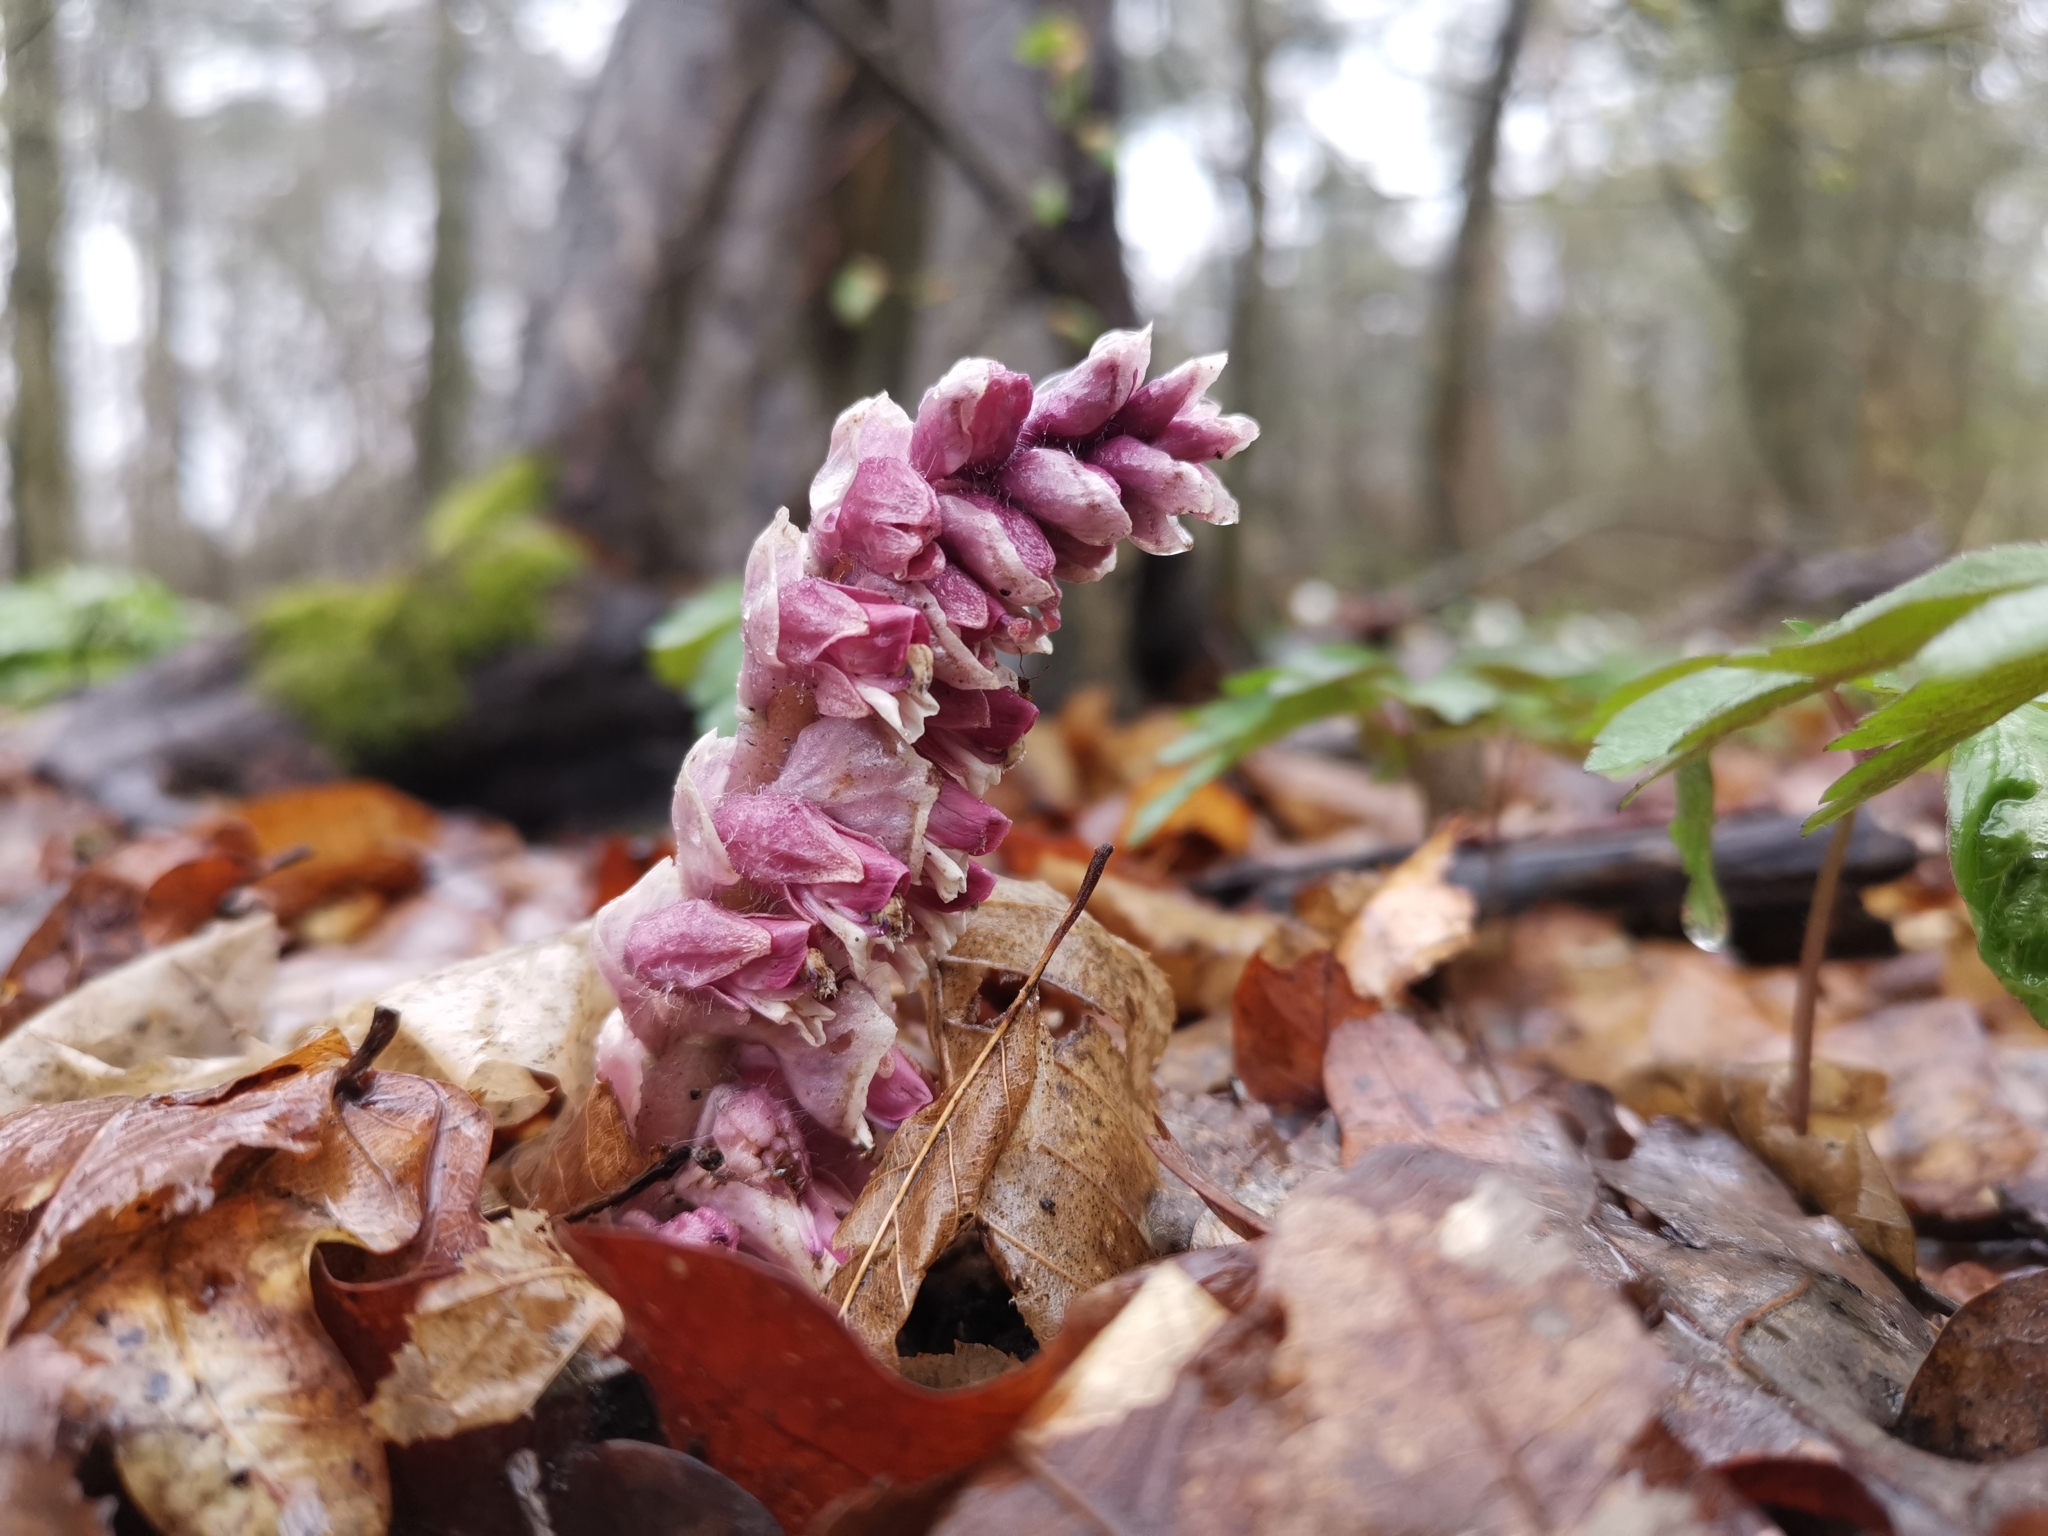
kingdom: Plantae
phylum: Tracheophyta
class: Magnoliopsida
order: Lamiales
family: Orobanchaceae
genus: Lathraea
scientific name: Lathraea squamaria
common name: Toothwort
